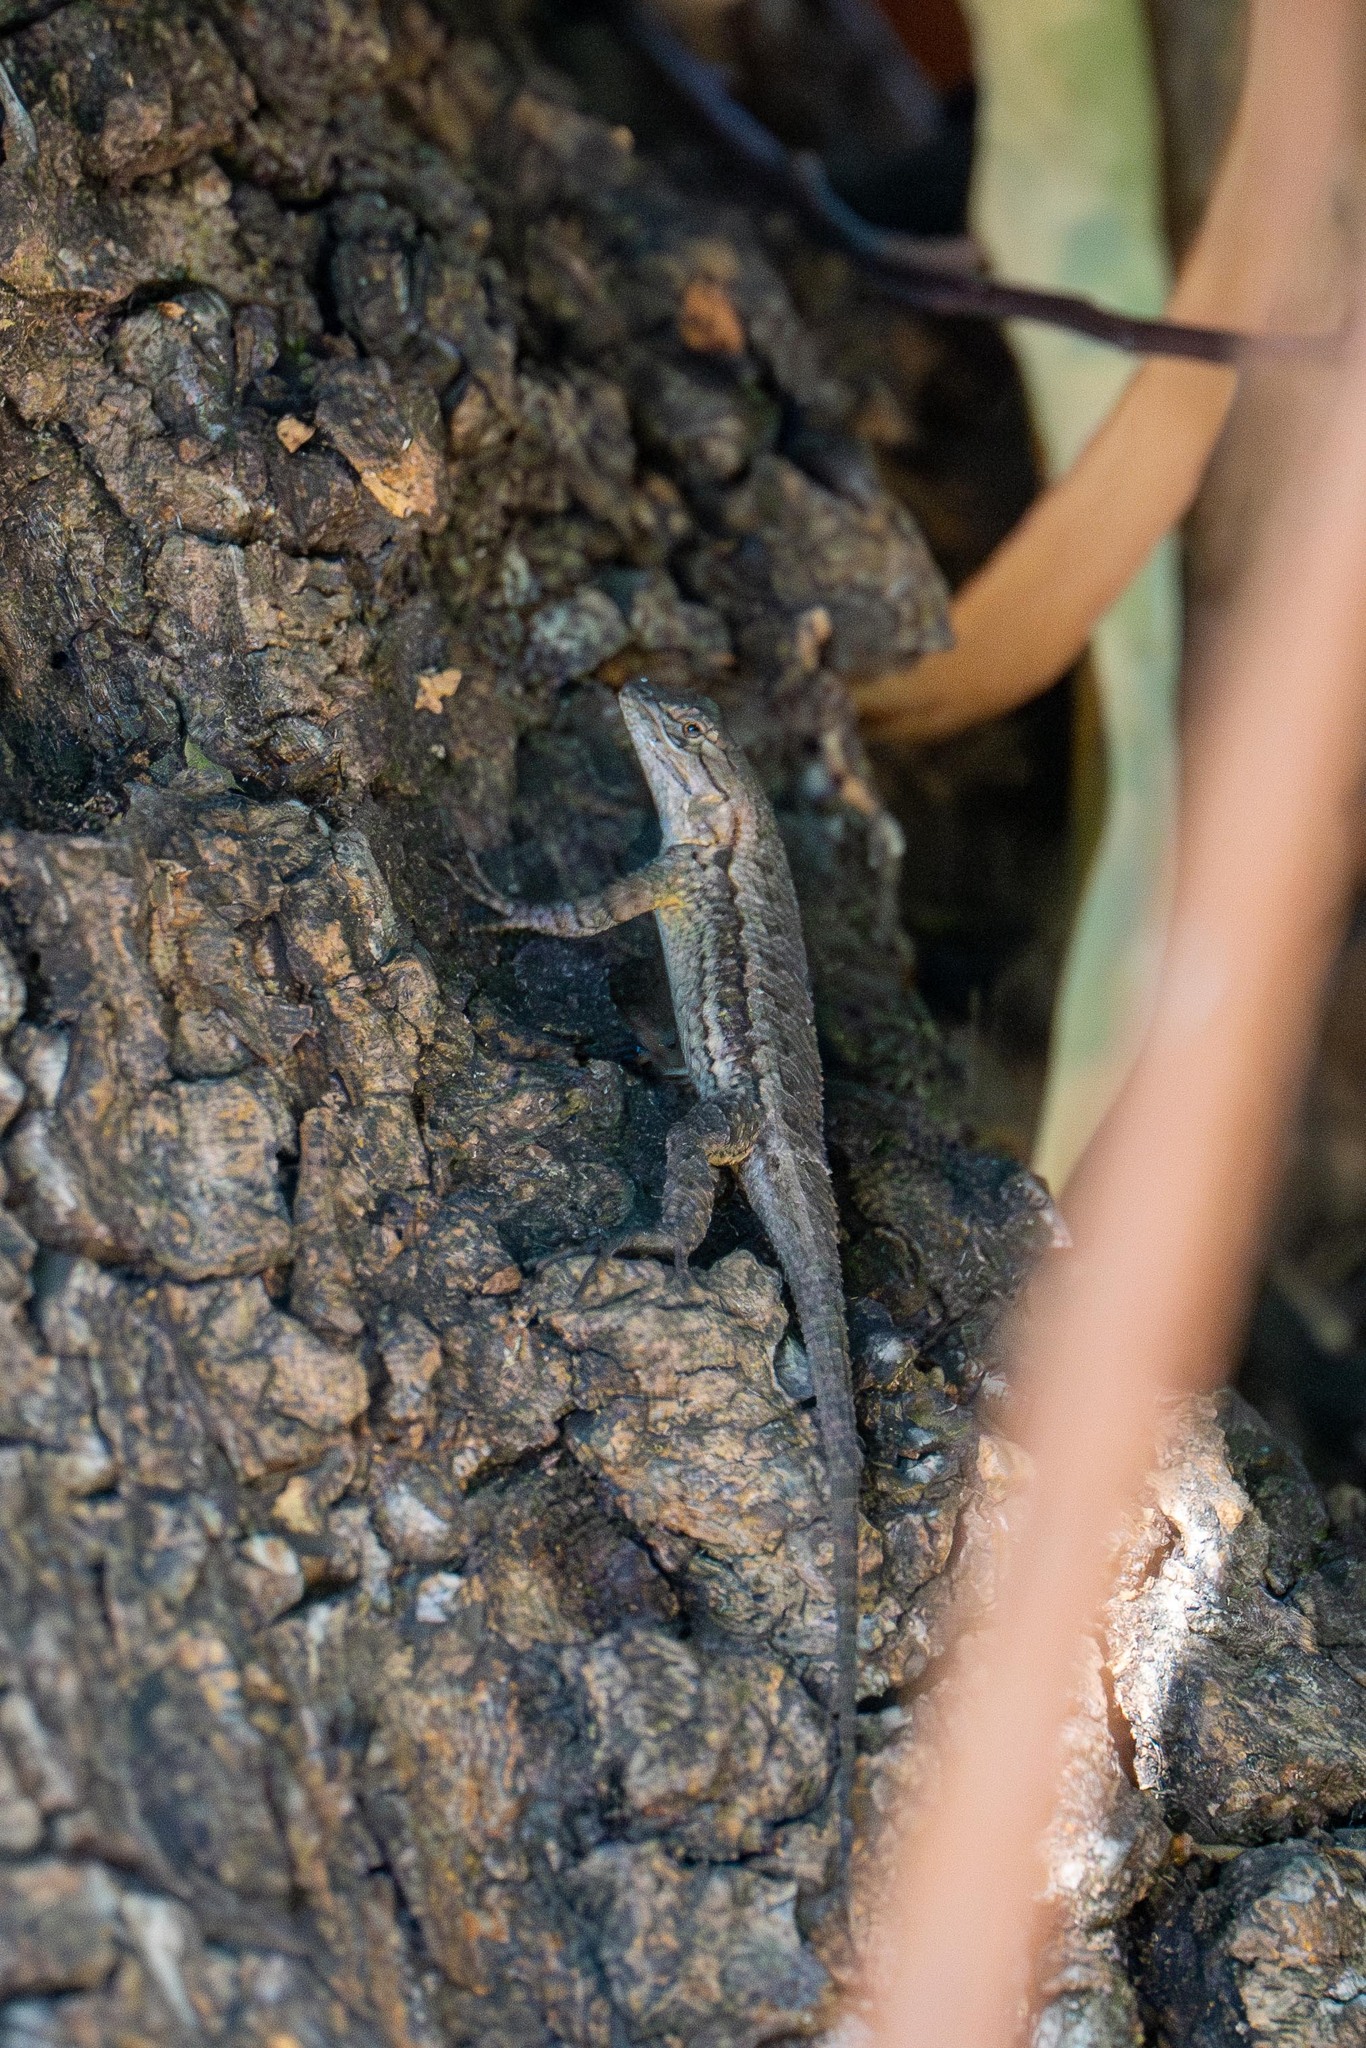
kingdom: Animalia
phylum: Chordata
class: Squamata
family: Phrynosomatidae
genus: Sceloporus
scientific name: Sceloporus occidentalis
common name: Western fence lizard
